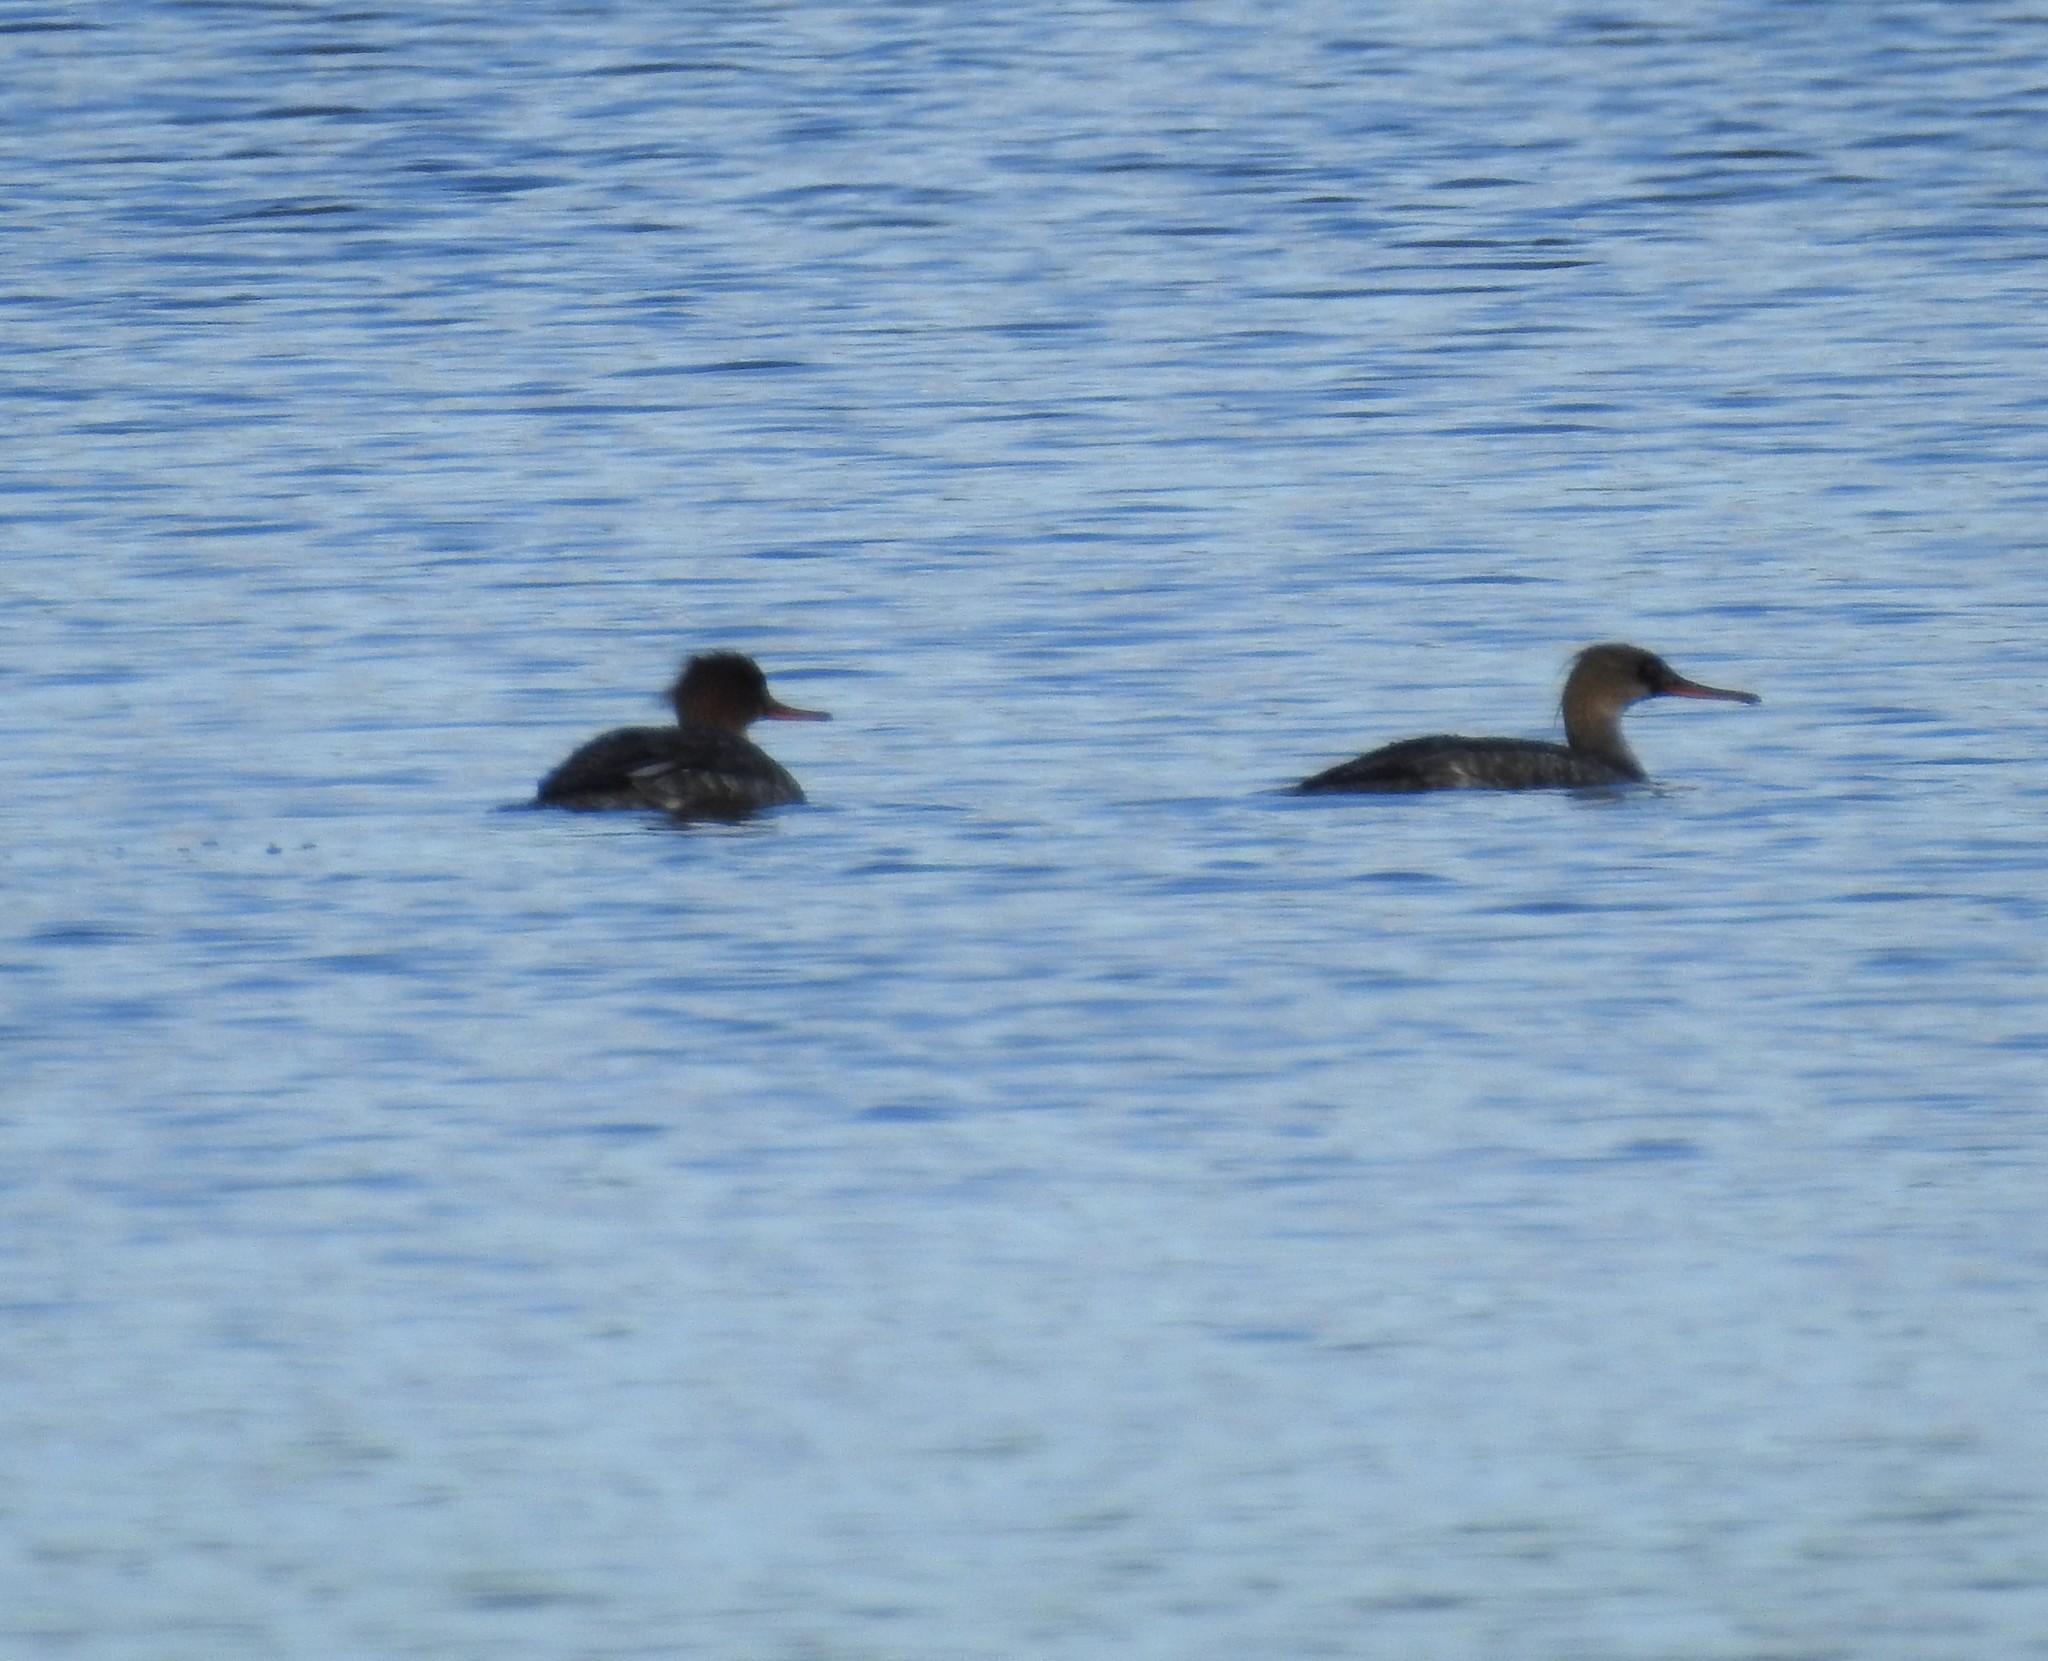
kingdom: Animalia
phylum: Chordata
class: Aves
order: Anseriformes
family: Anatidae
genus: Mergus
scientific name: Mergus serrator
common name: Red-breasted merganser
